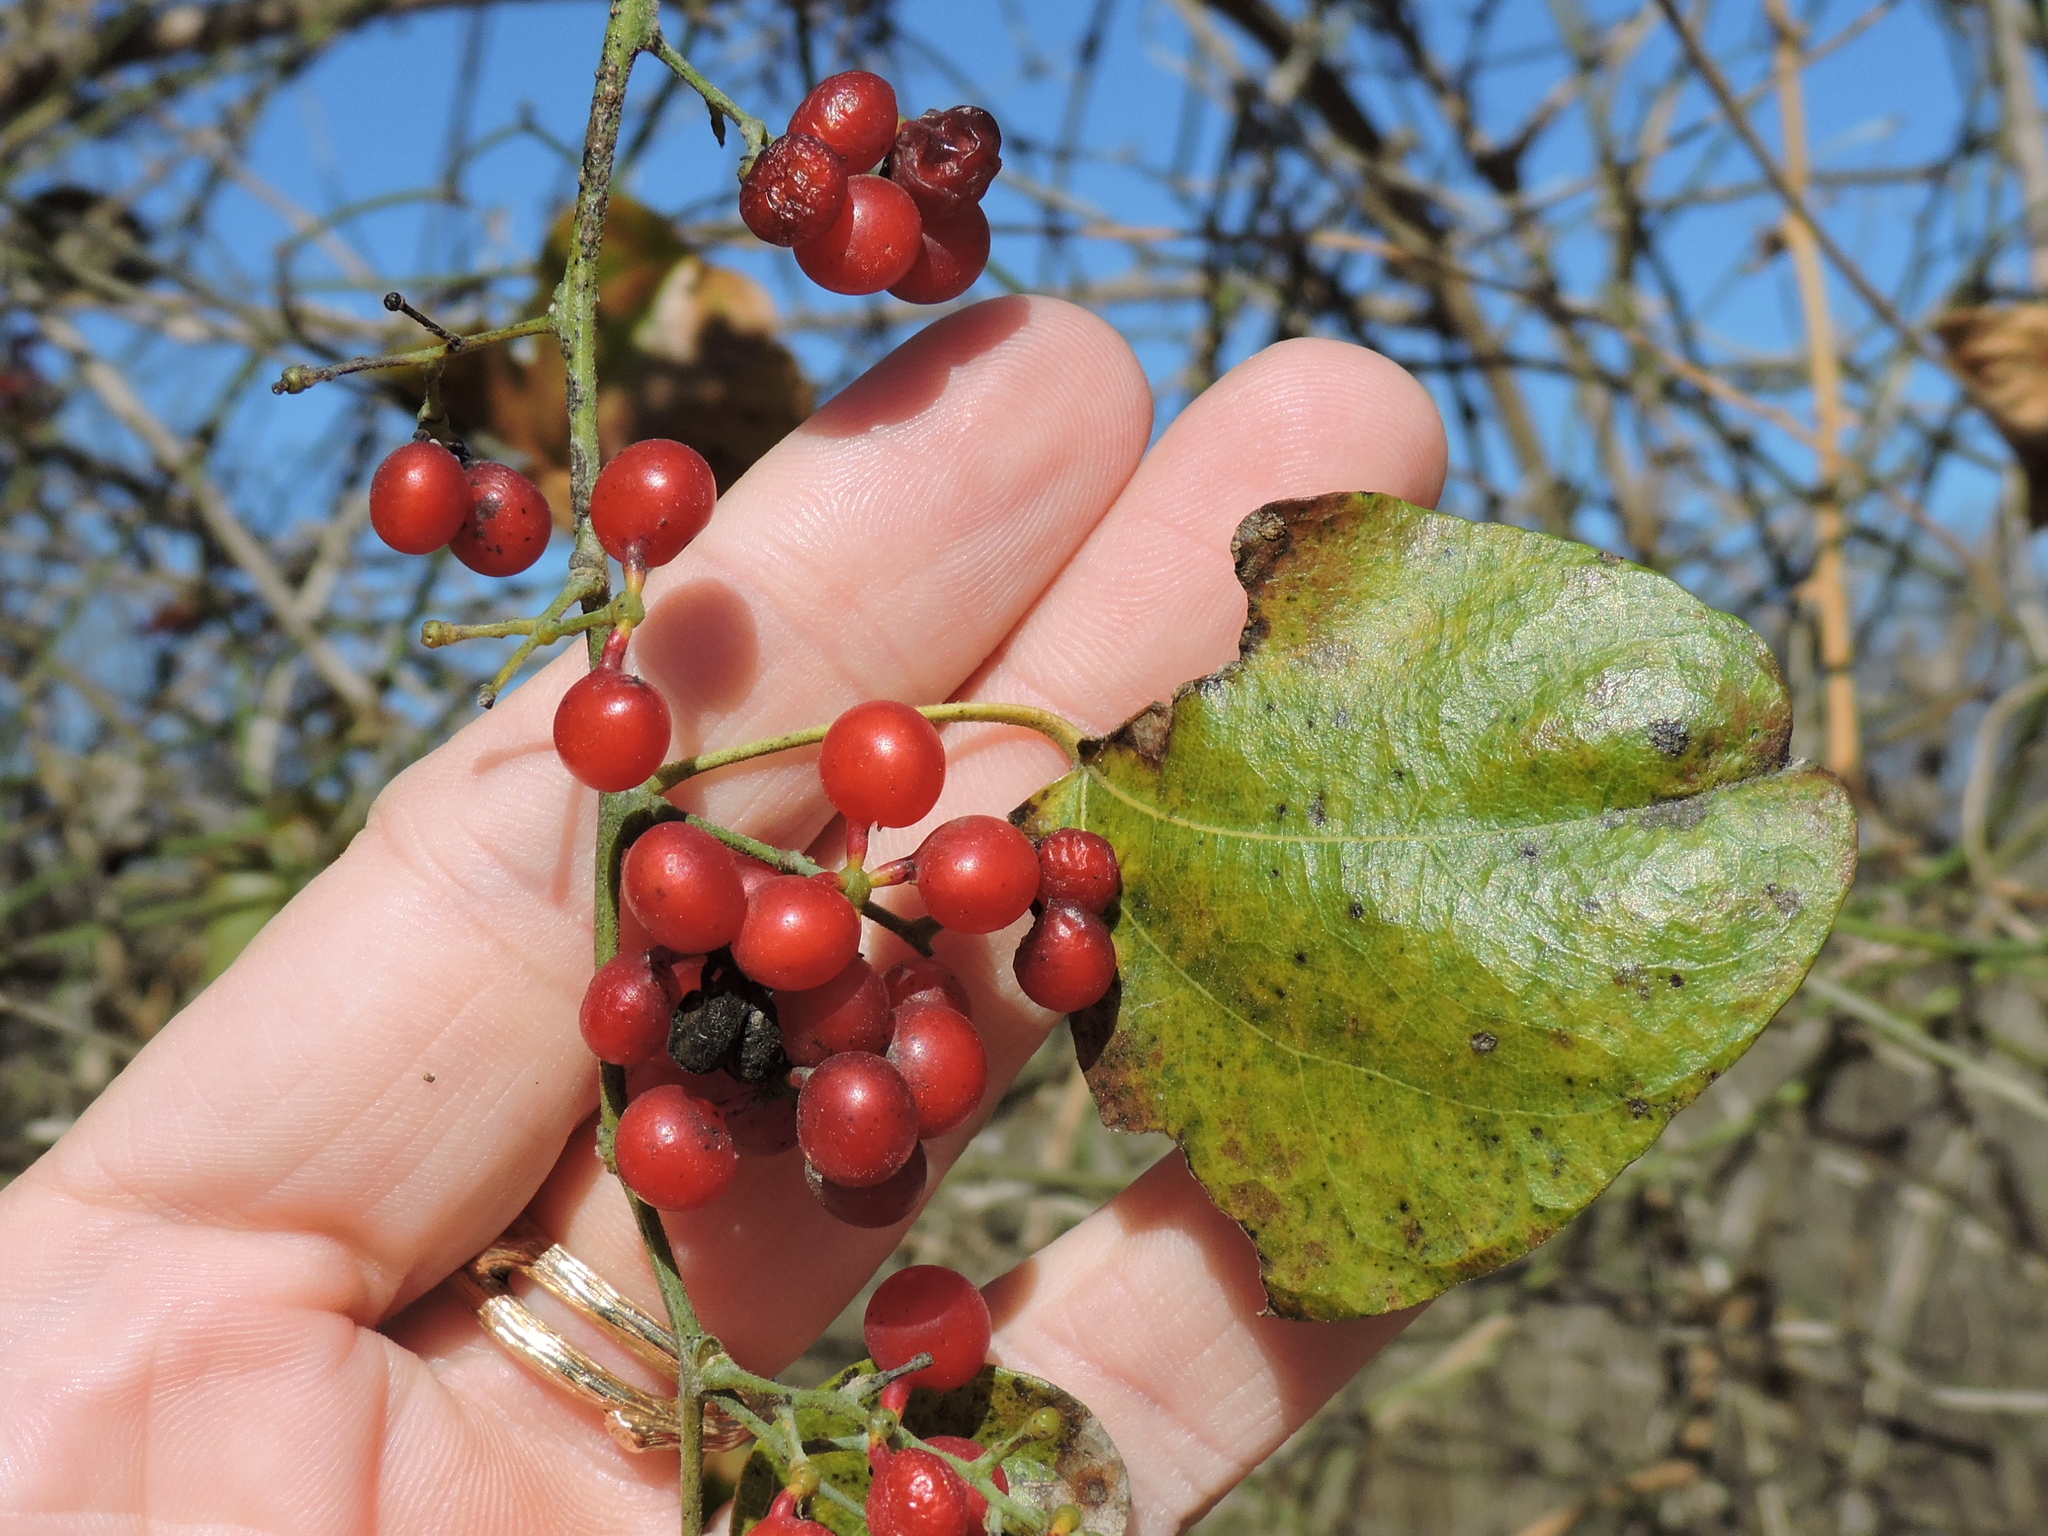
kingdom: Plantae
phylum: Tracheophyta
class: Magnoliopsida
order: Ranunculales
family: Menispermaceae
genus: Cocculus
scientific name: Cocculus carolinus
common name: Carolina moonseed
